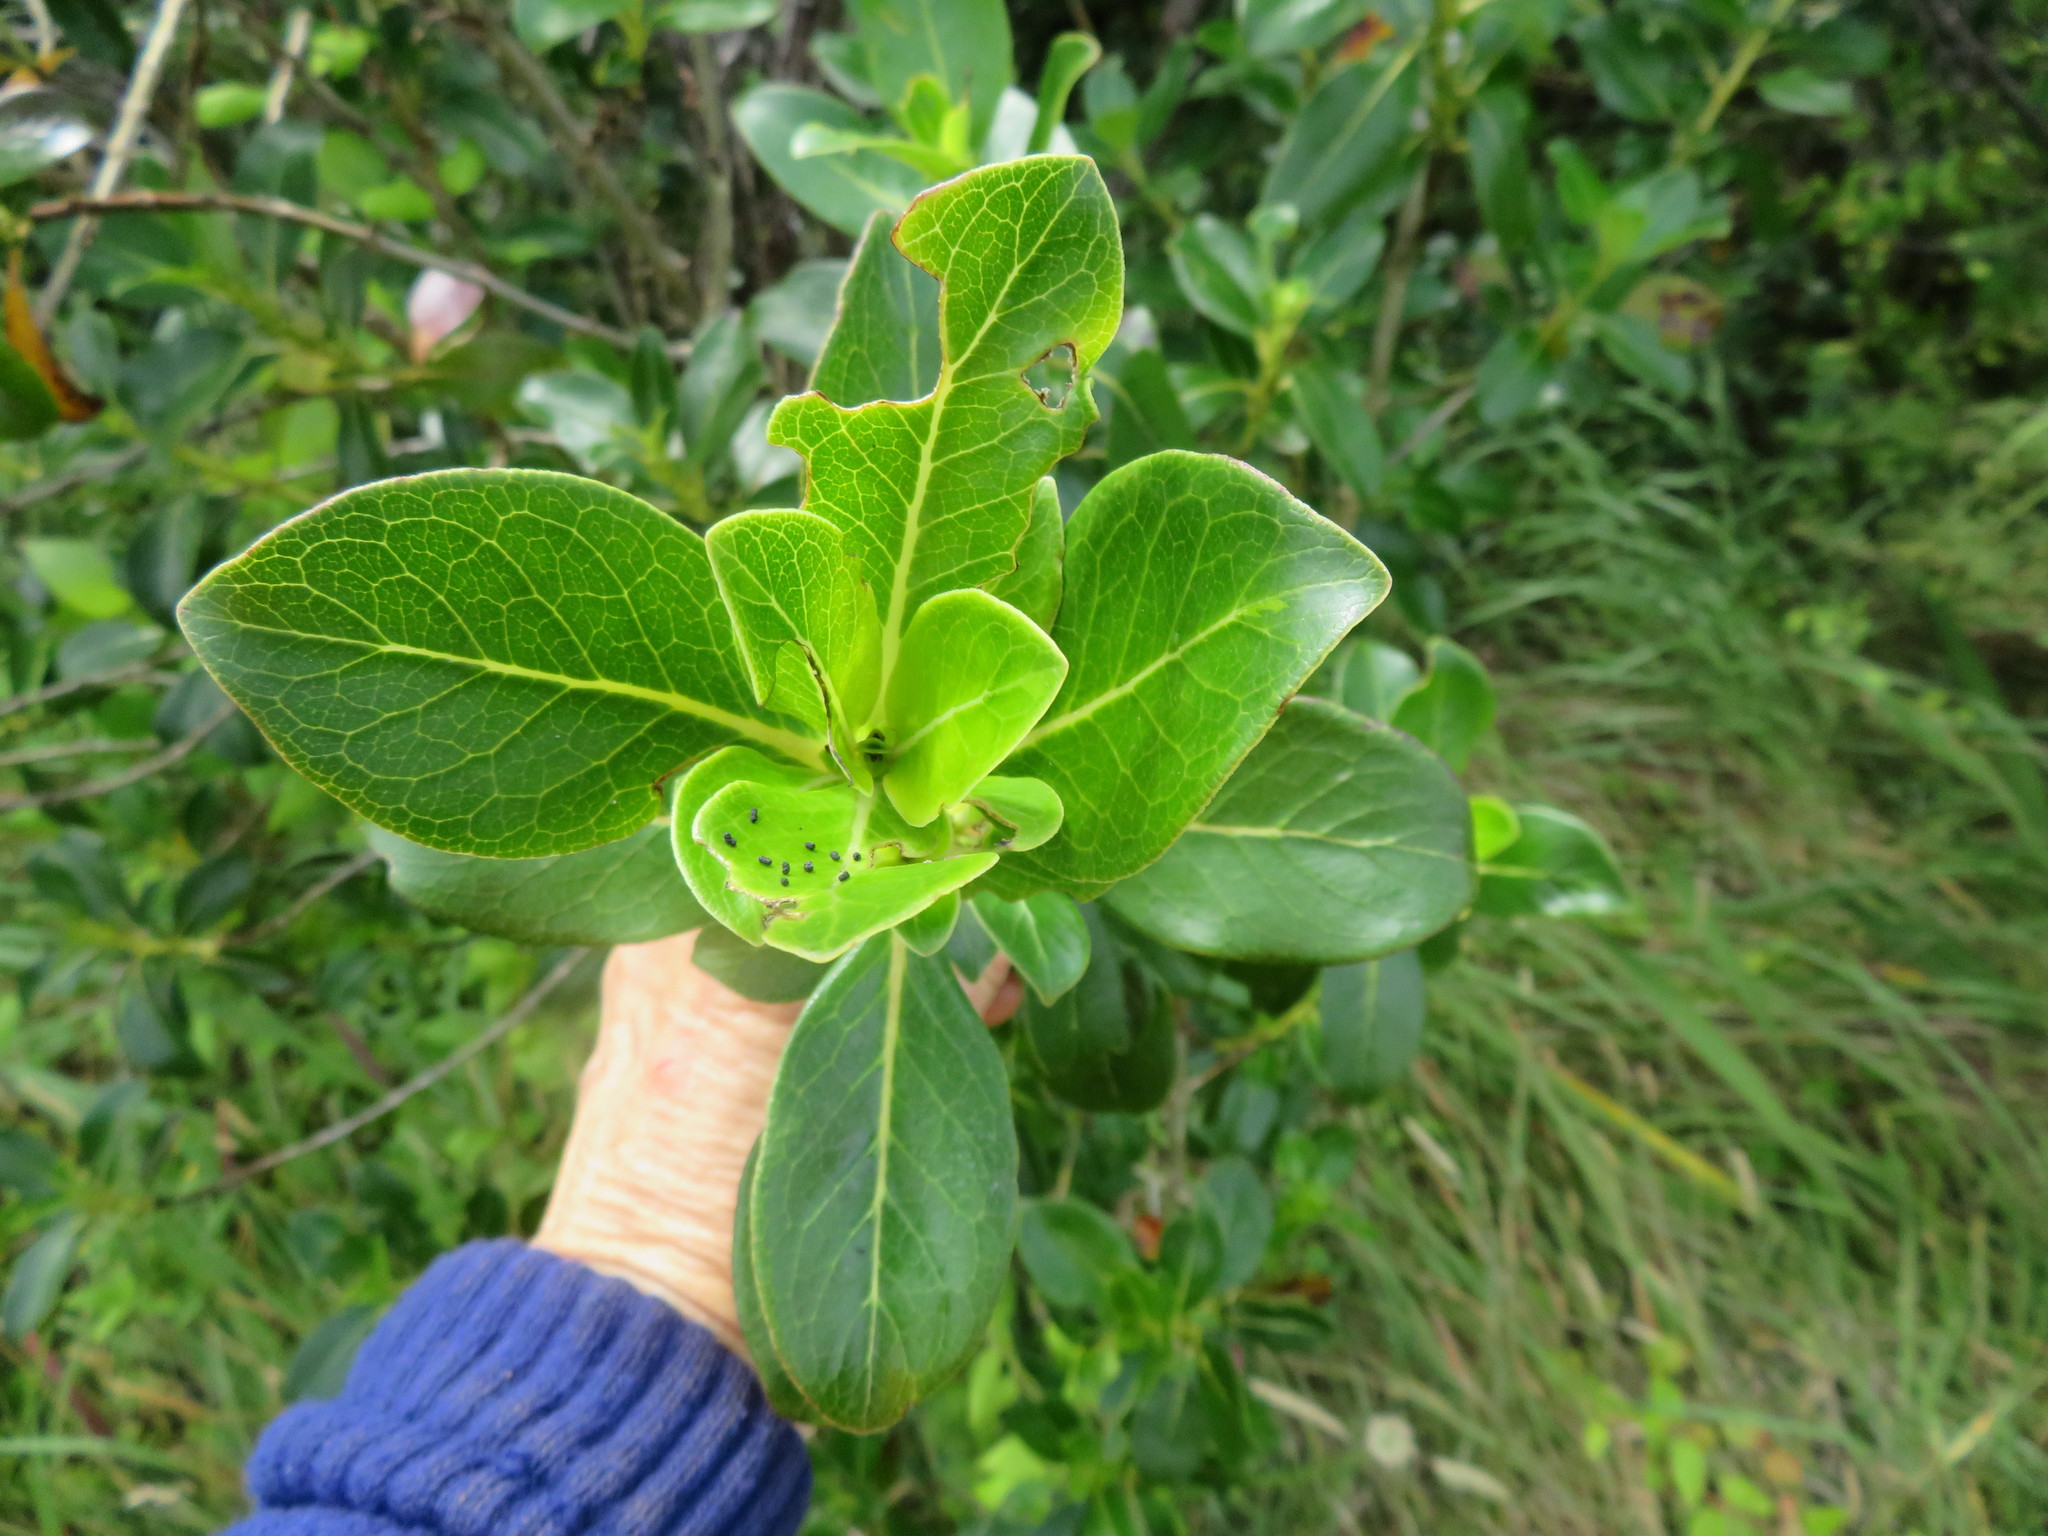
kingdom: Plantae
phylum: Tracheophyta
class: Magnoliopsida
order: Gentianales
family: Rubiaceae
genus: Coprosma
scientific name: Coprosma robusta
